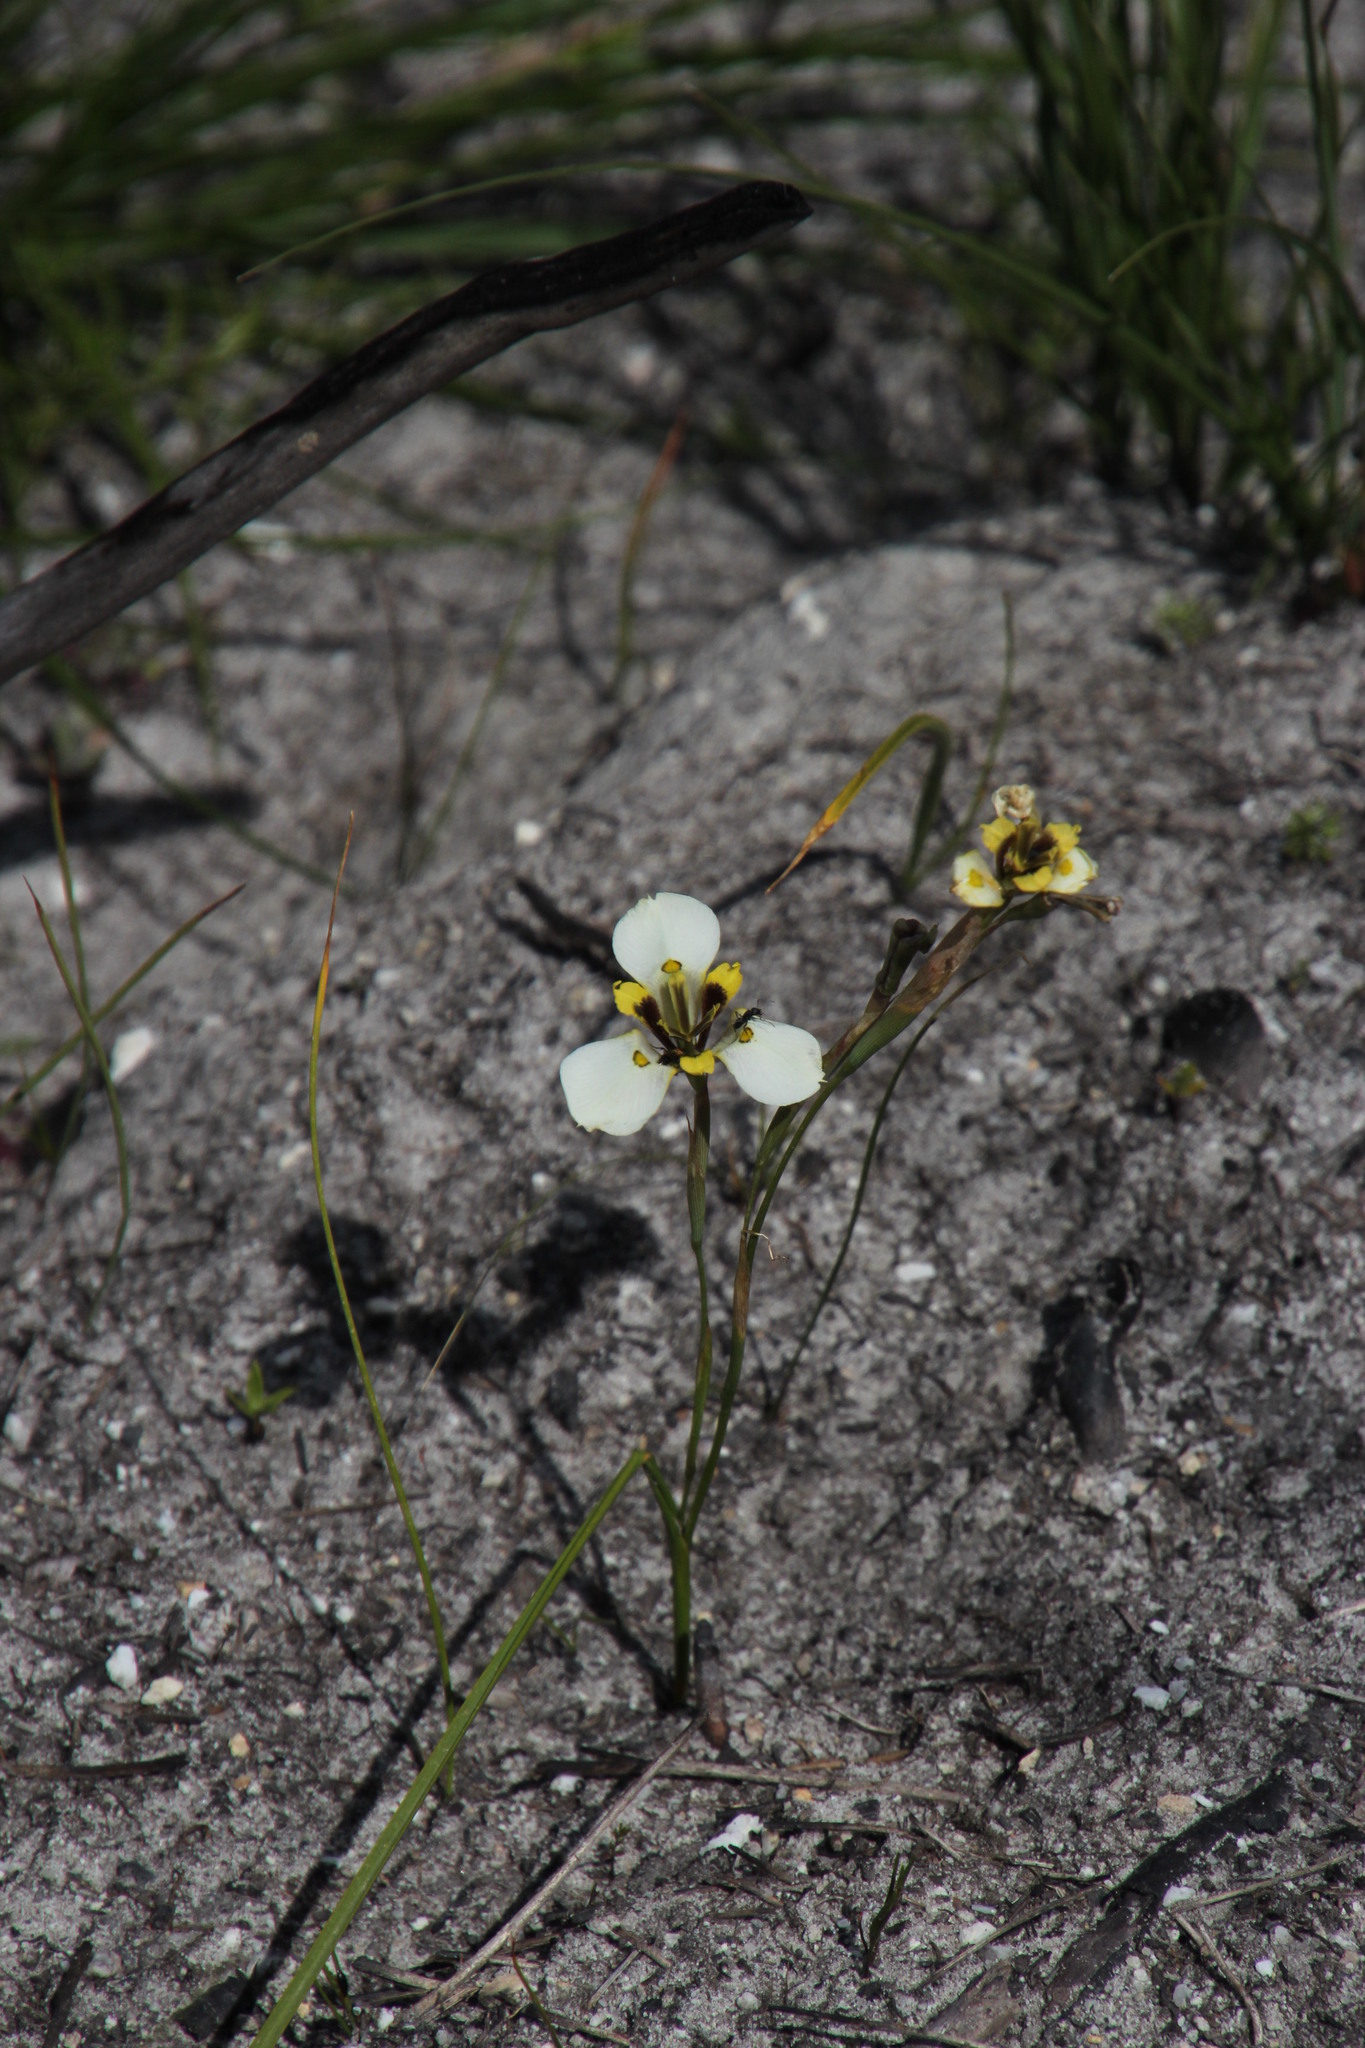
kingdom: Plantae
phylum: Tracheophyta
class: Liliopsida
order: Asparagales
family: Iridaceae
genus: Moraea
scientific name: Moraea lurida
